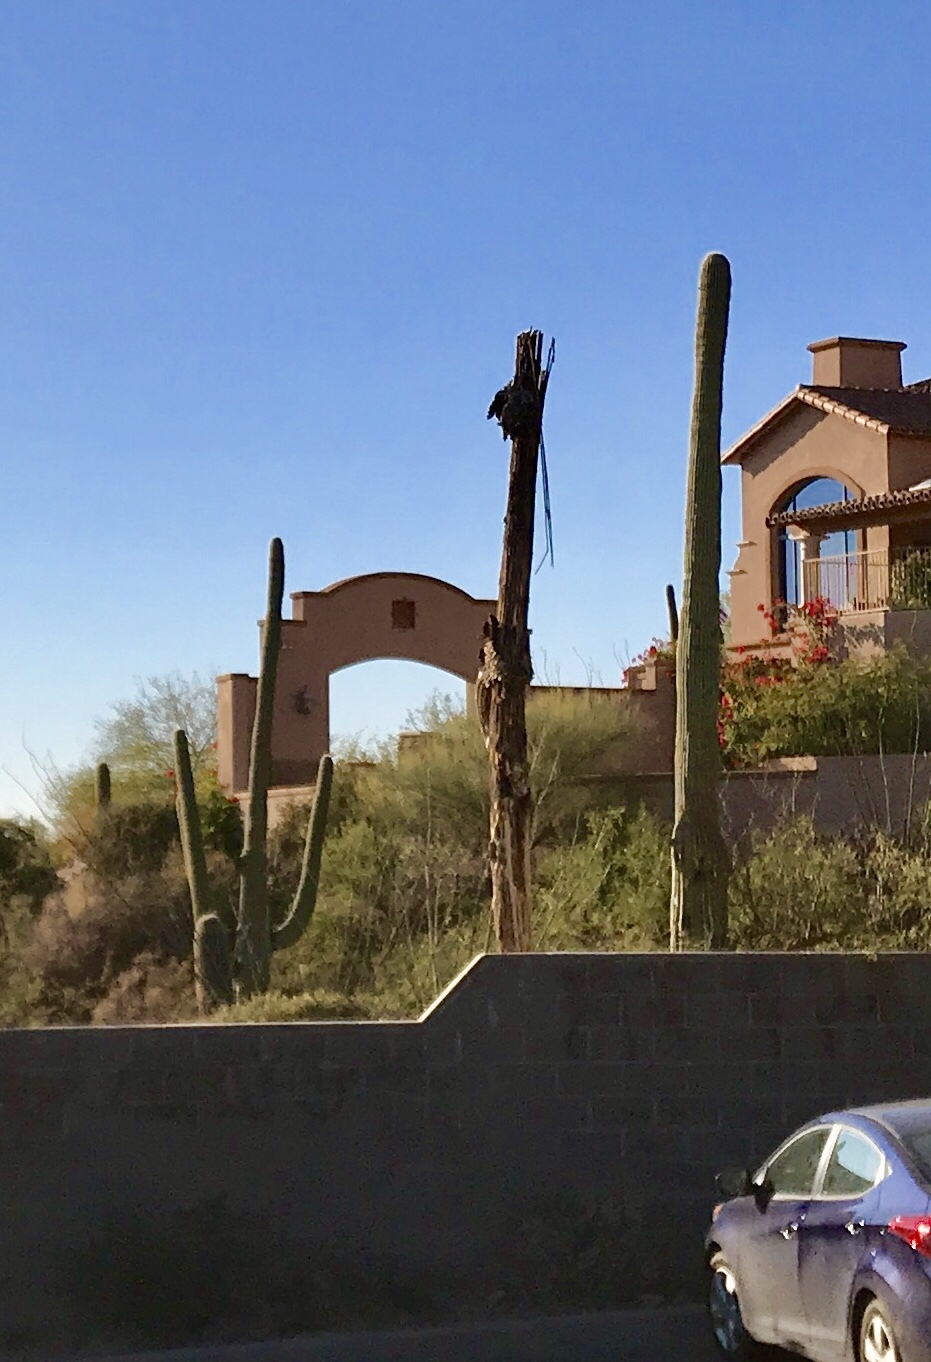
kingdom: Plantae
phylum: Tracheophyta
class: Magnoliopsida
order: Caryophyllales
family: Cactaceae
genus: Carnegiea
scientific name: Carnegiea gigantea
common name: Saguaro
